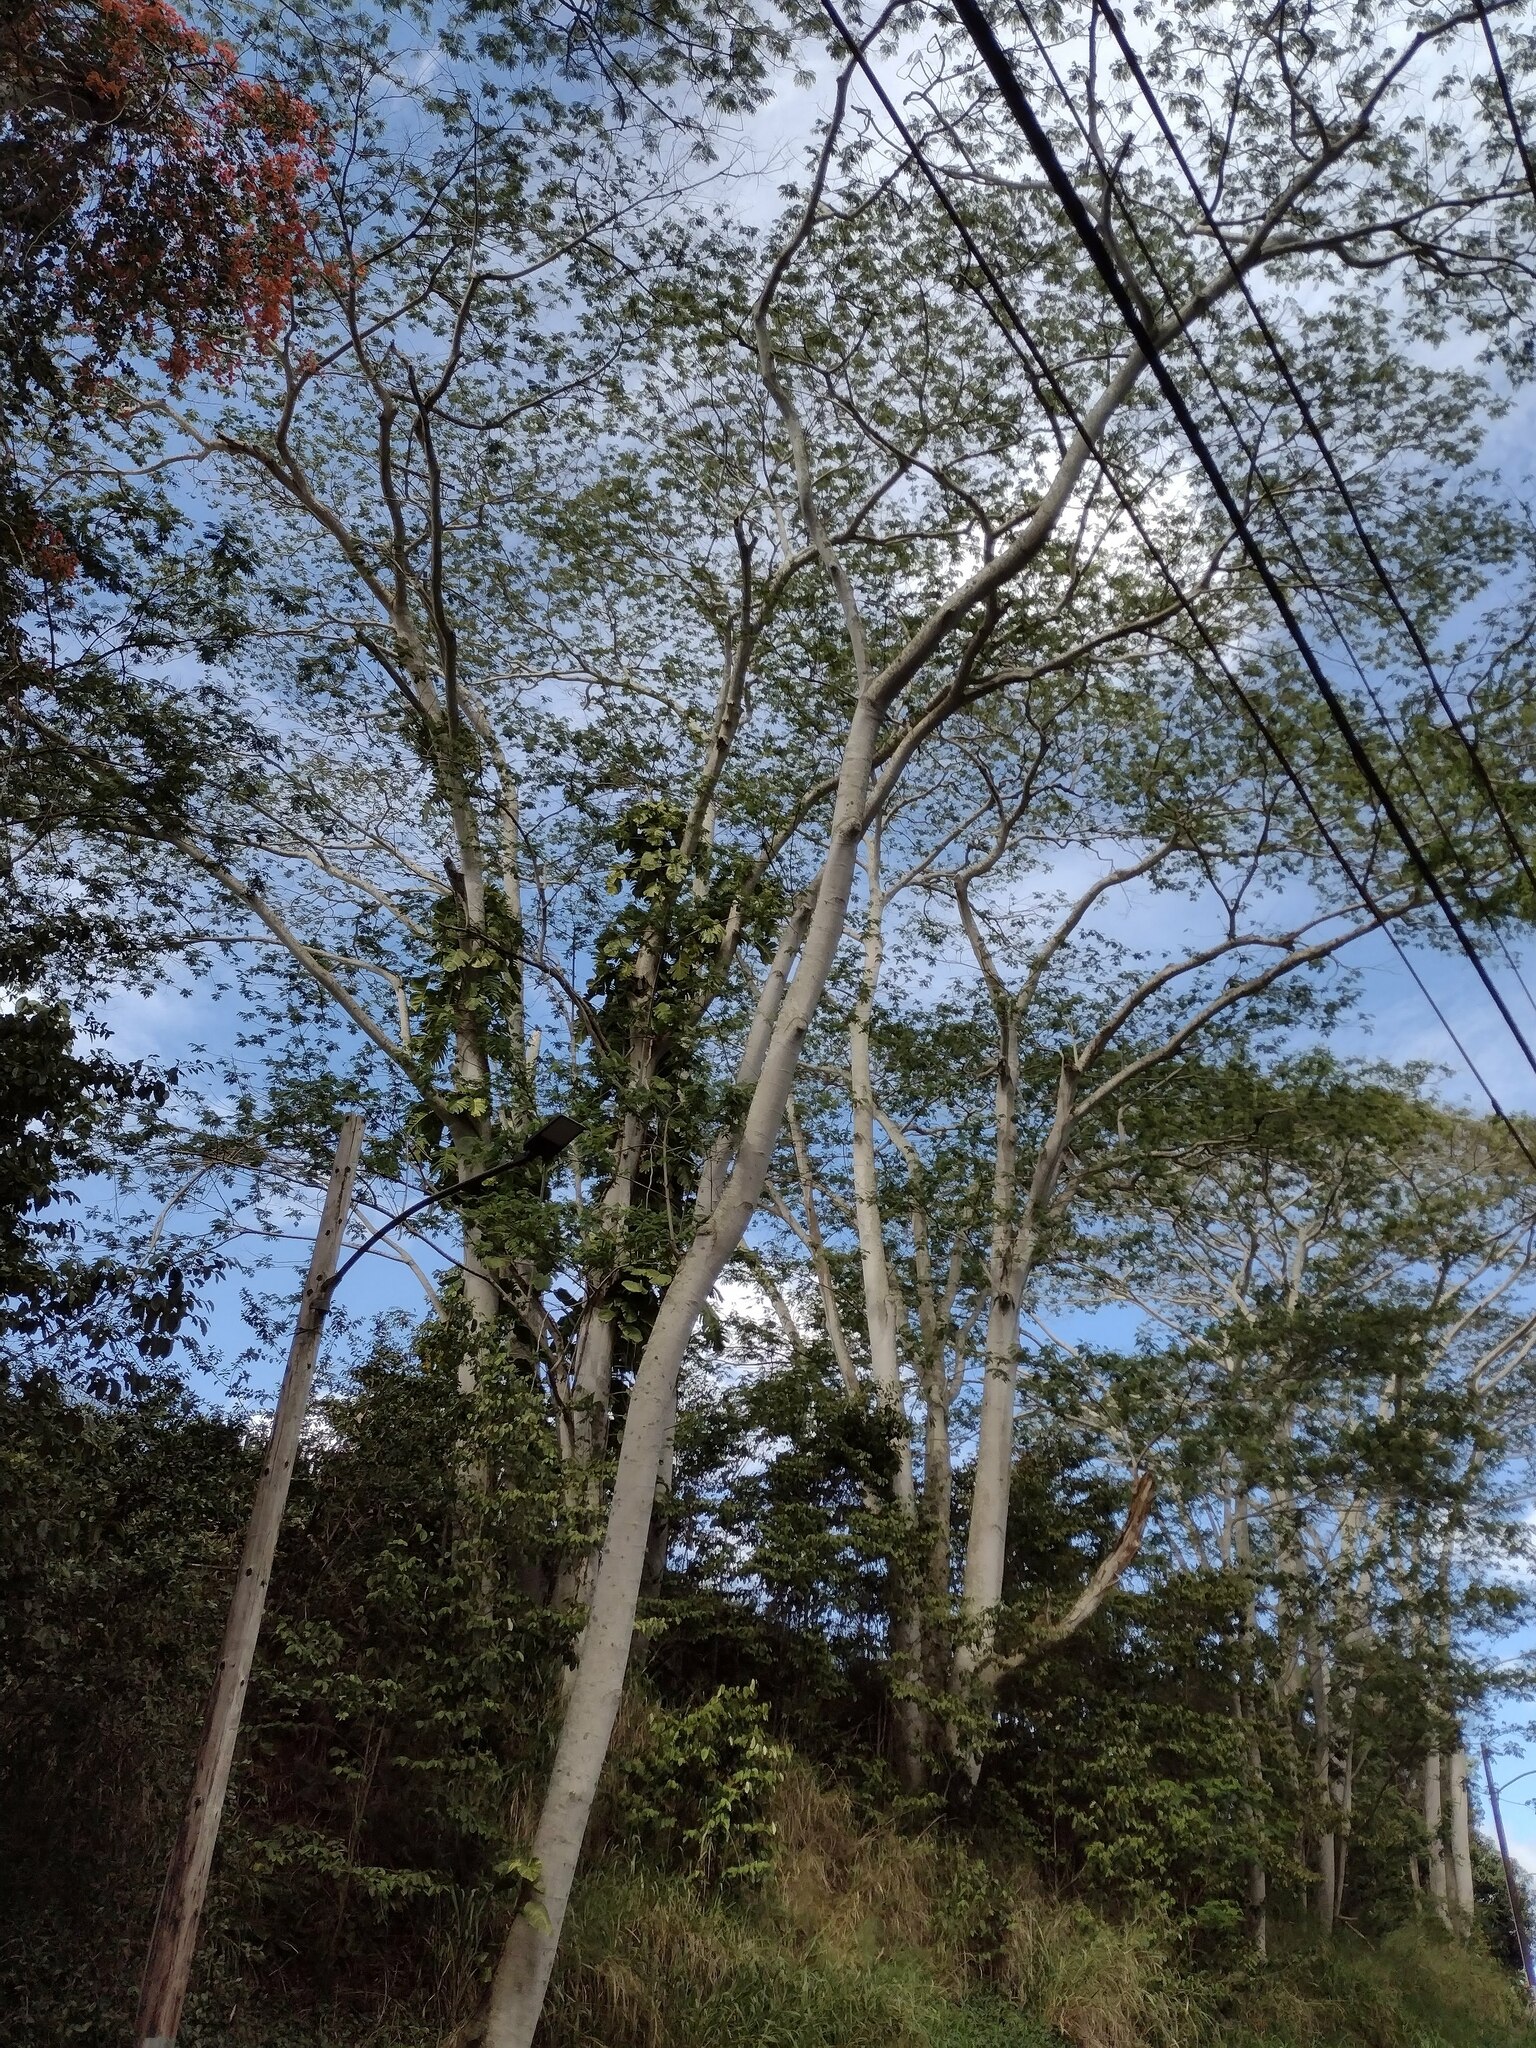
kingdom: Plantae
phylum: Tracheophyta
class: Magnoliopsida
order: Fabales
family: Fabaceae
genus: Falcataria
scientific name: Falcataria falcata
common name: Moluccan albizia
